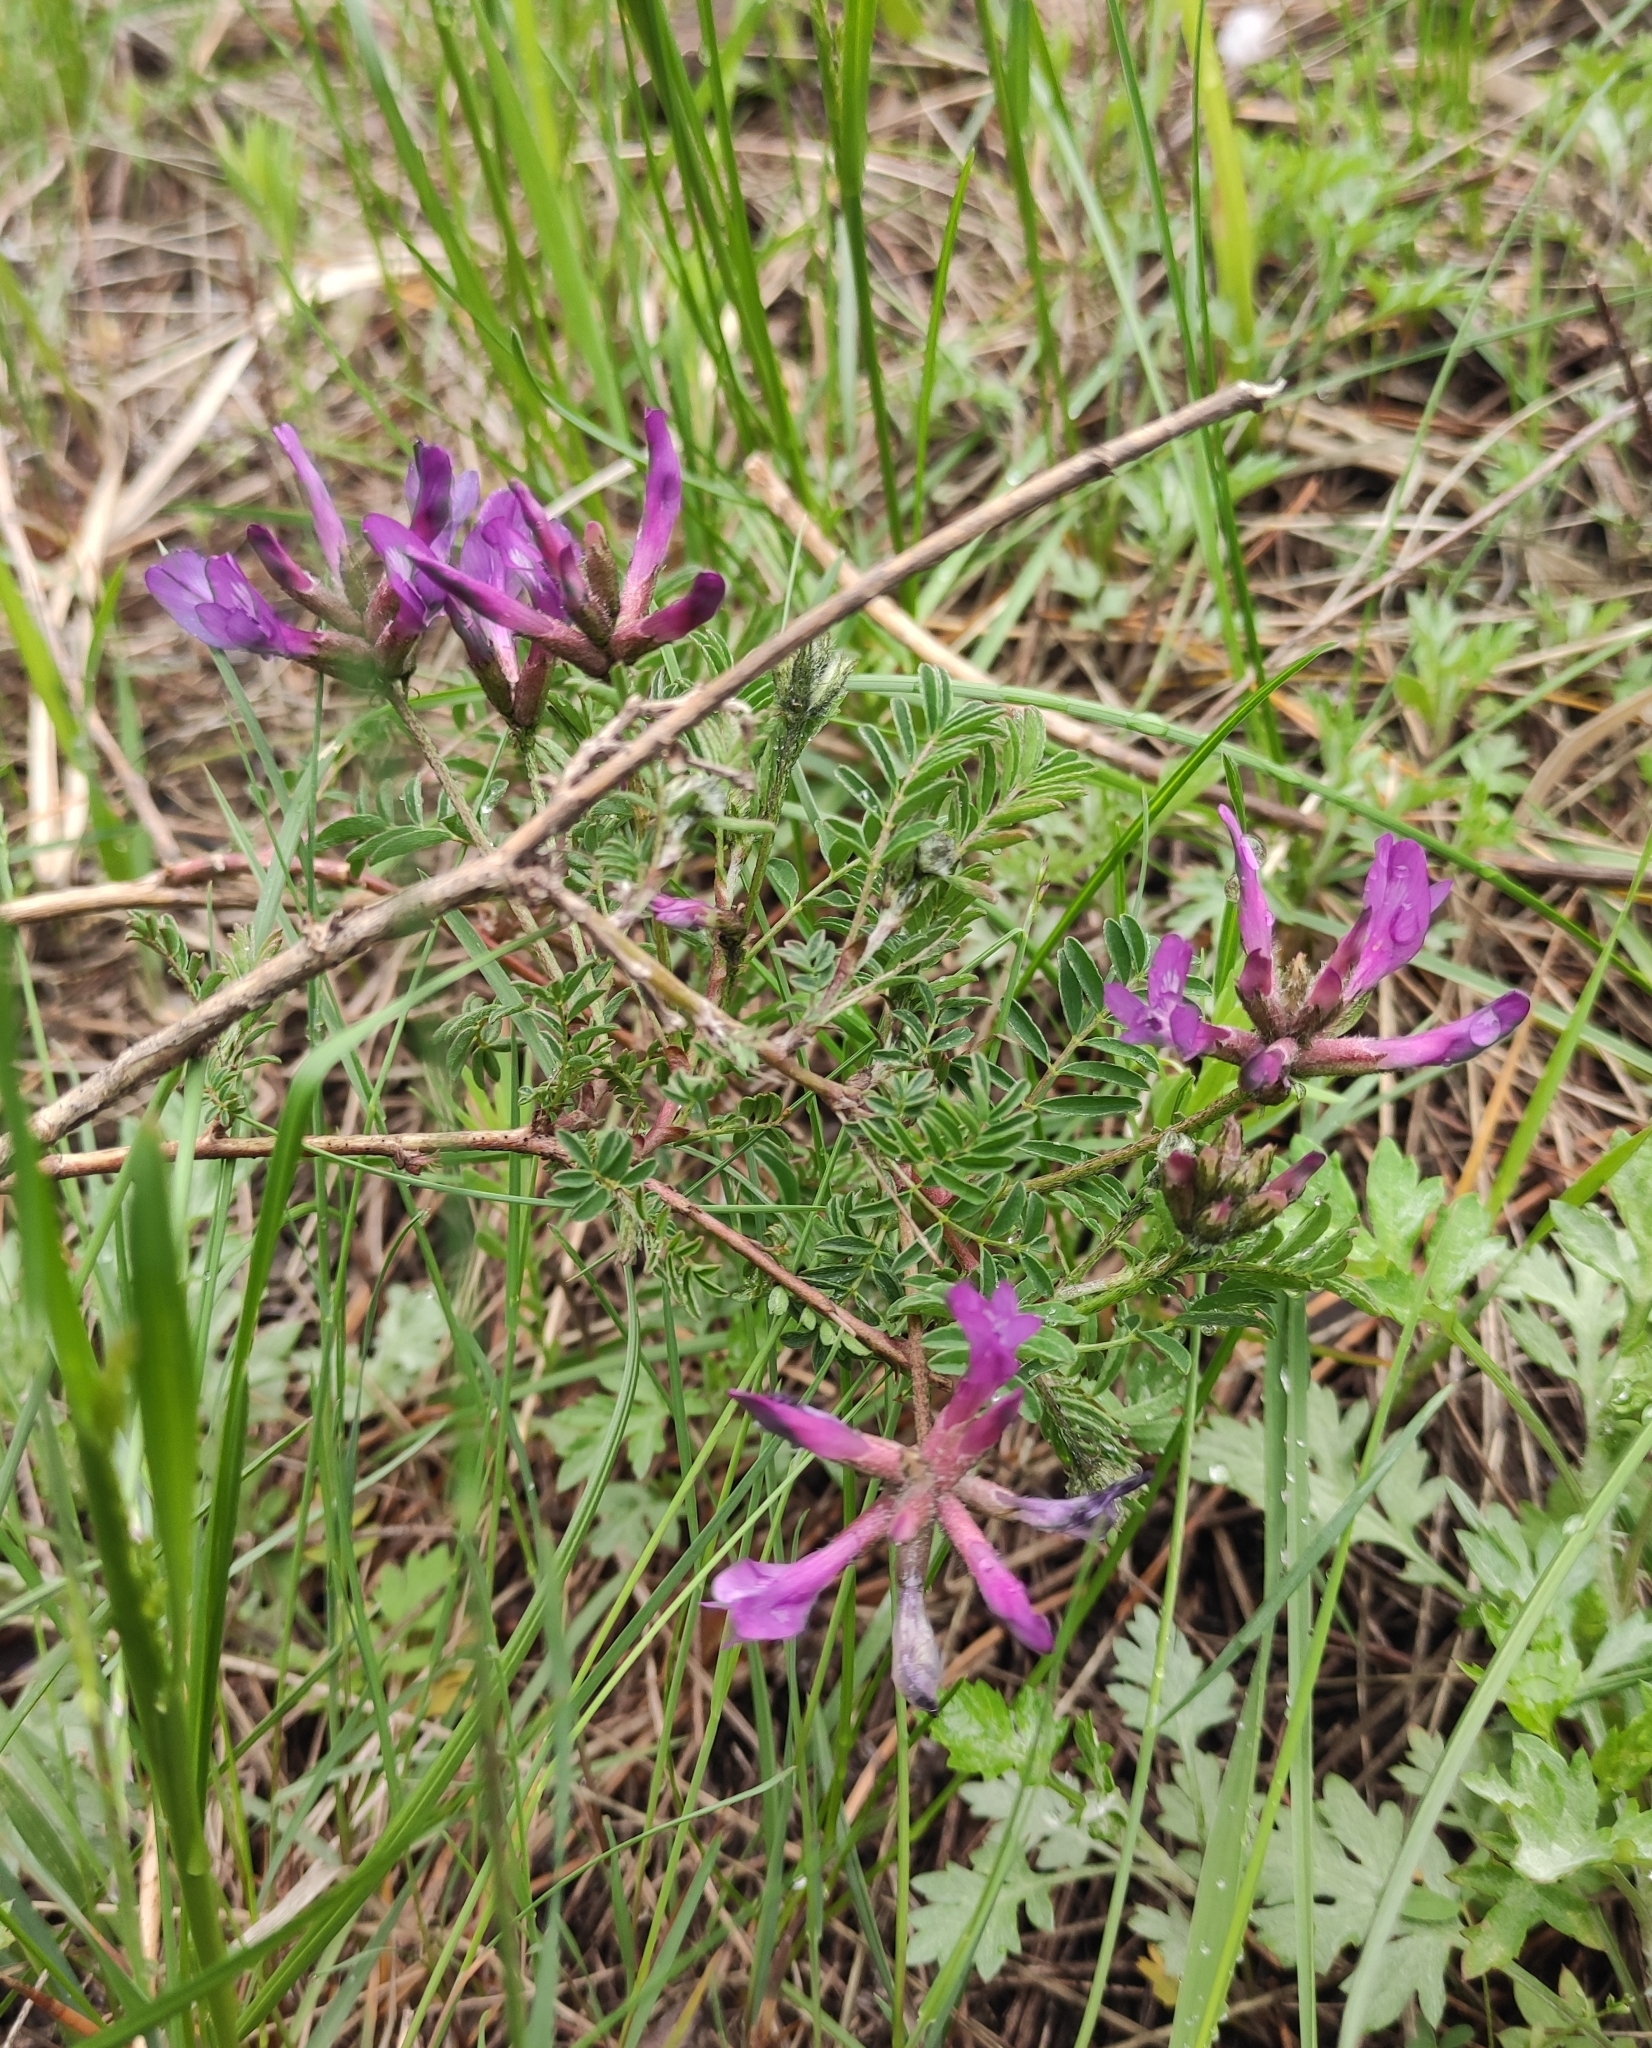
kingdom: Plantae
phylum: Tracheophyta
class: Magnoliopsida
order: Fabales
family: Fabaceae
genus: Astragalus
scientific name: Astragalus syriacus
